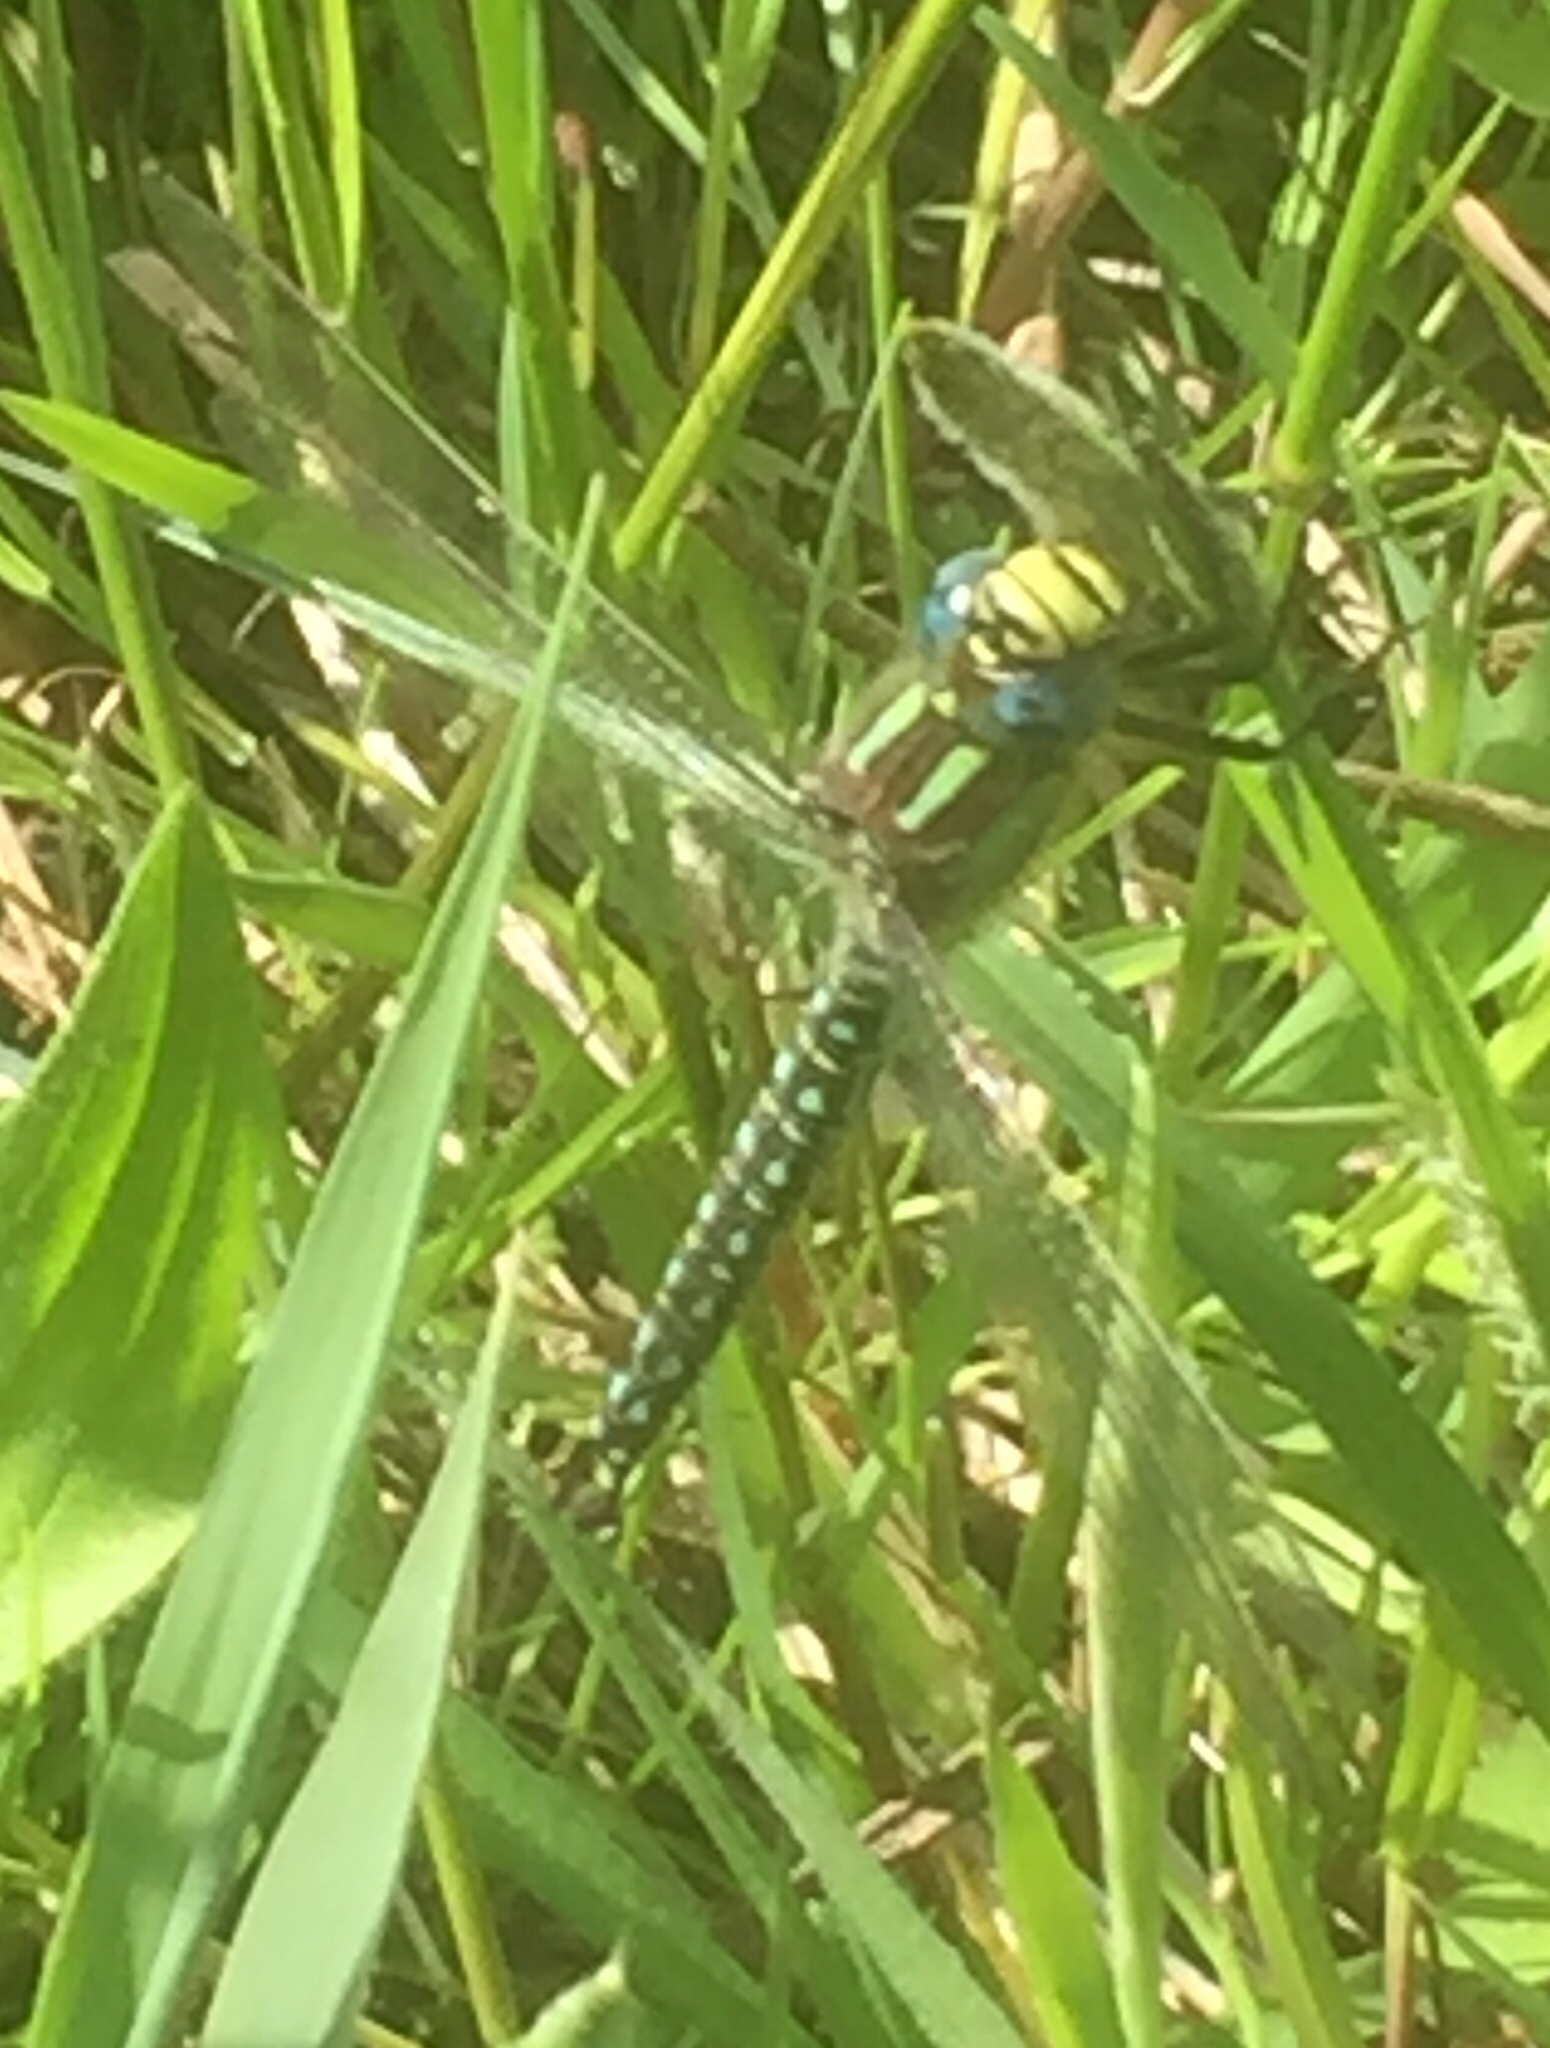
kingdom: Animalia
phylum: Arthropoda
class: Insecta
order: Odonata
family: Aeshnidae
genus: Brachytron
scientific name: Brachytron pratense
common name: Hairy hawker
